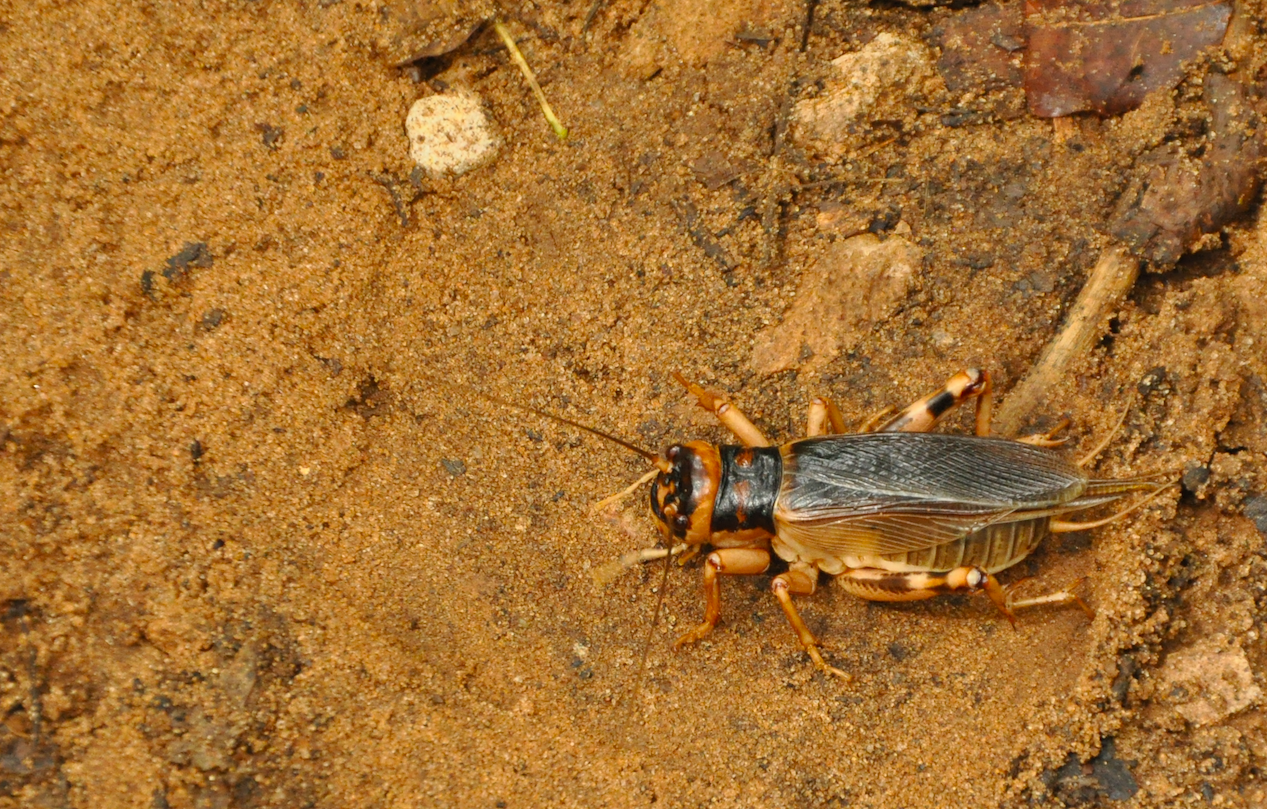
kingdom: Animalia
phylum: Arthropoda
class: Insecta
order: Orthoptera
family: Gryllidae
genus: Brachytrupes
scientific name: Brachytrupes membranaceus
